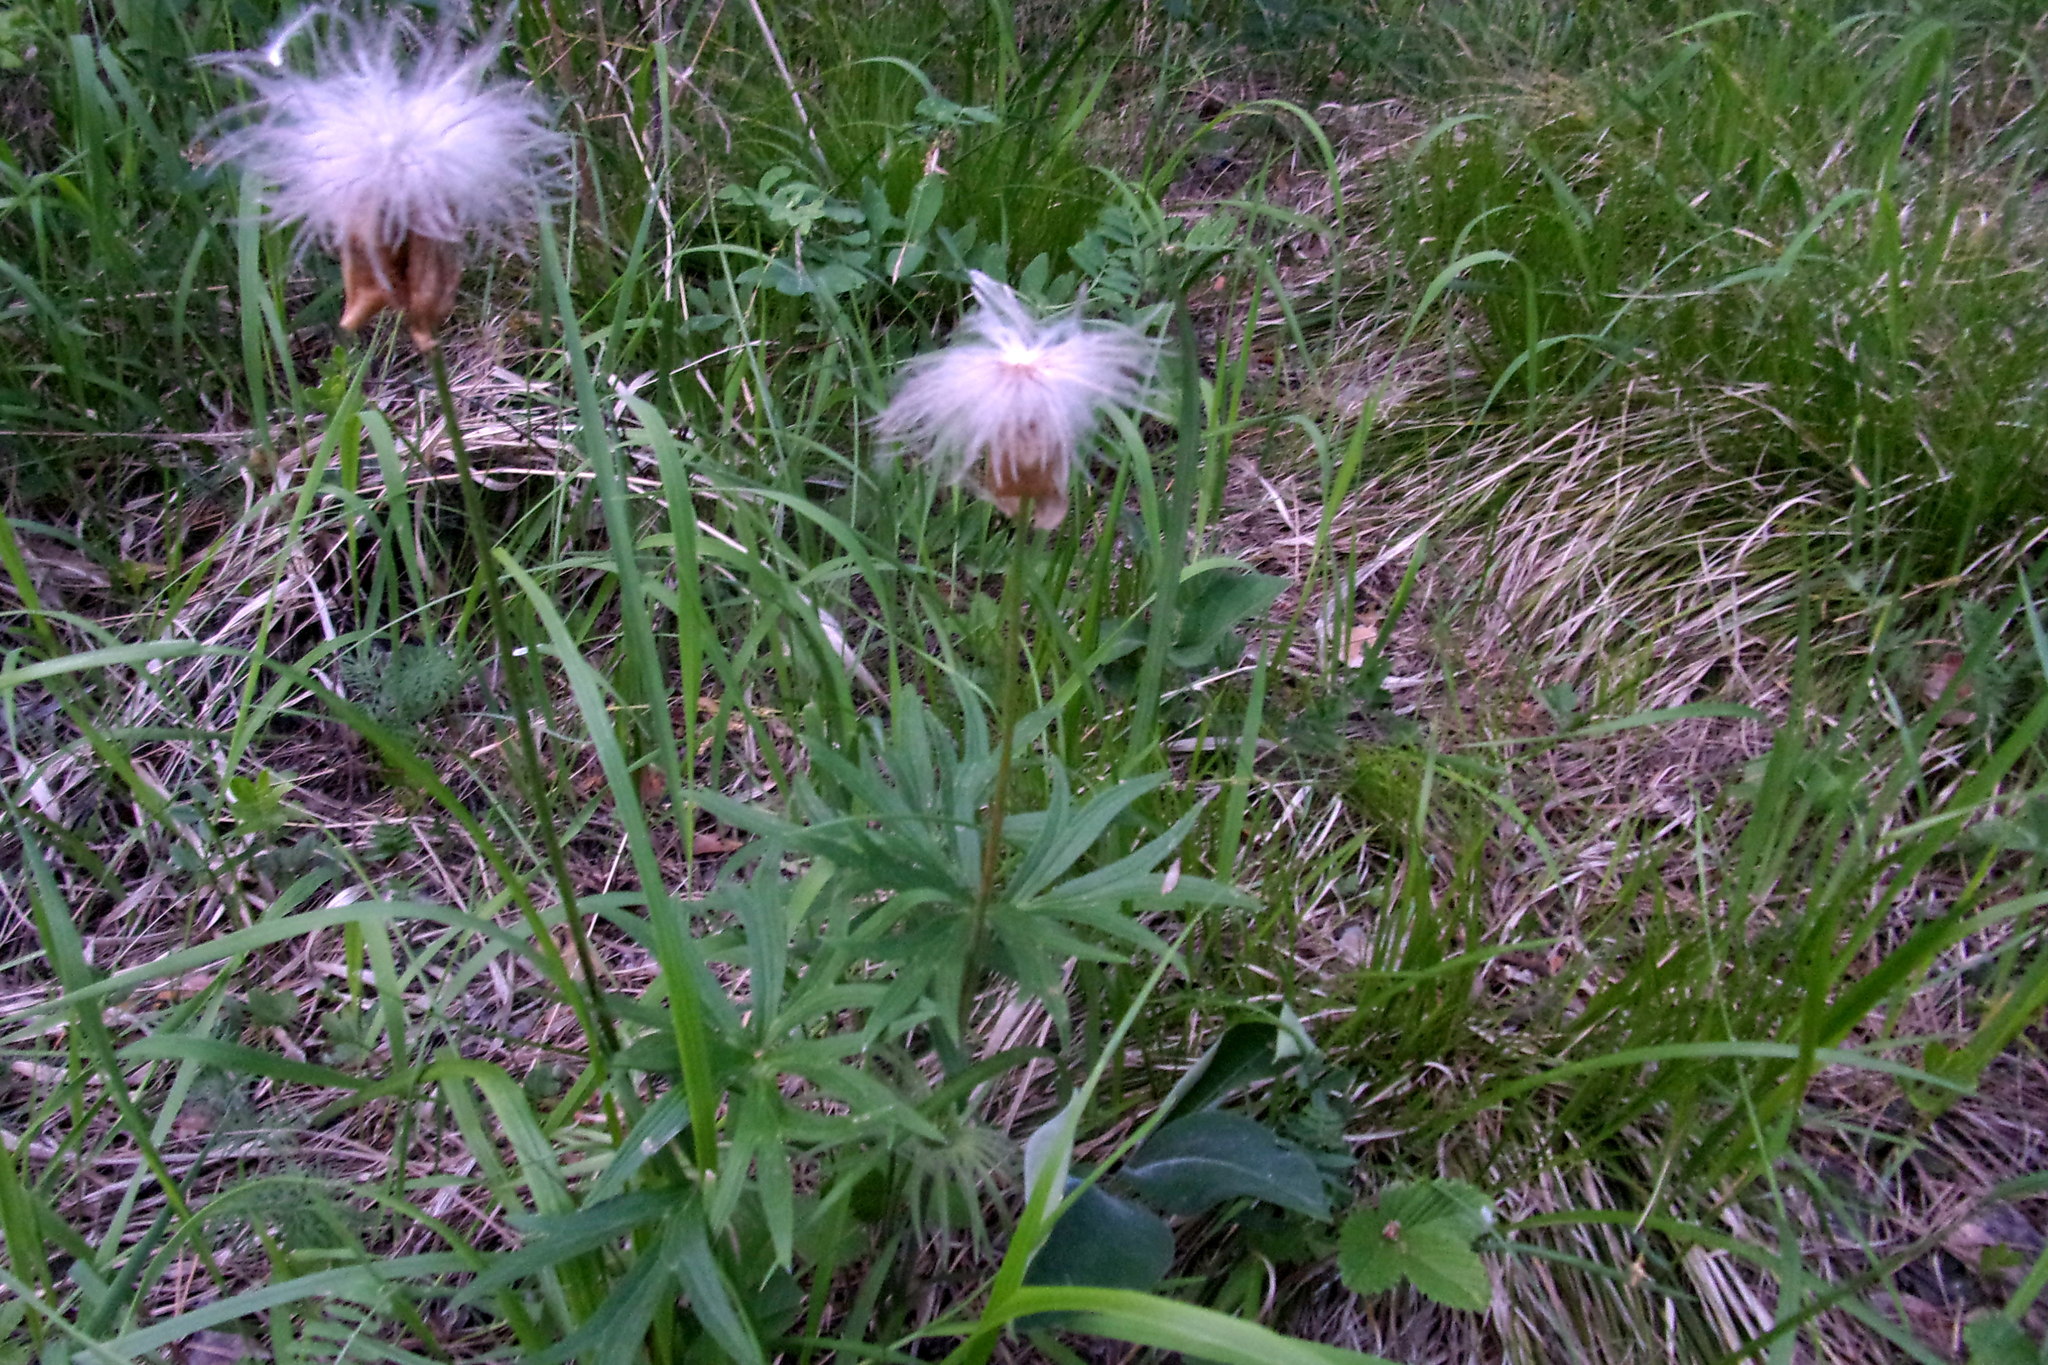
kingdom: Plantae
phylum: Tracheophyta
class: Magnoliopsida
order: Ranunculales
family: Ranunculaceae
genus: Pulsatilla
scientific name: Pulsatilla patens
